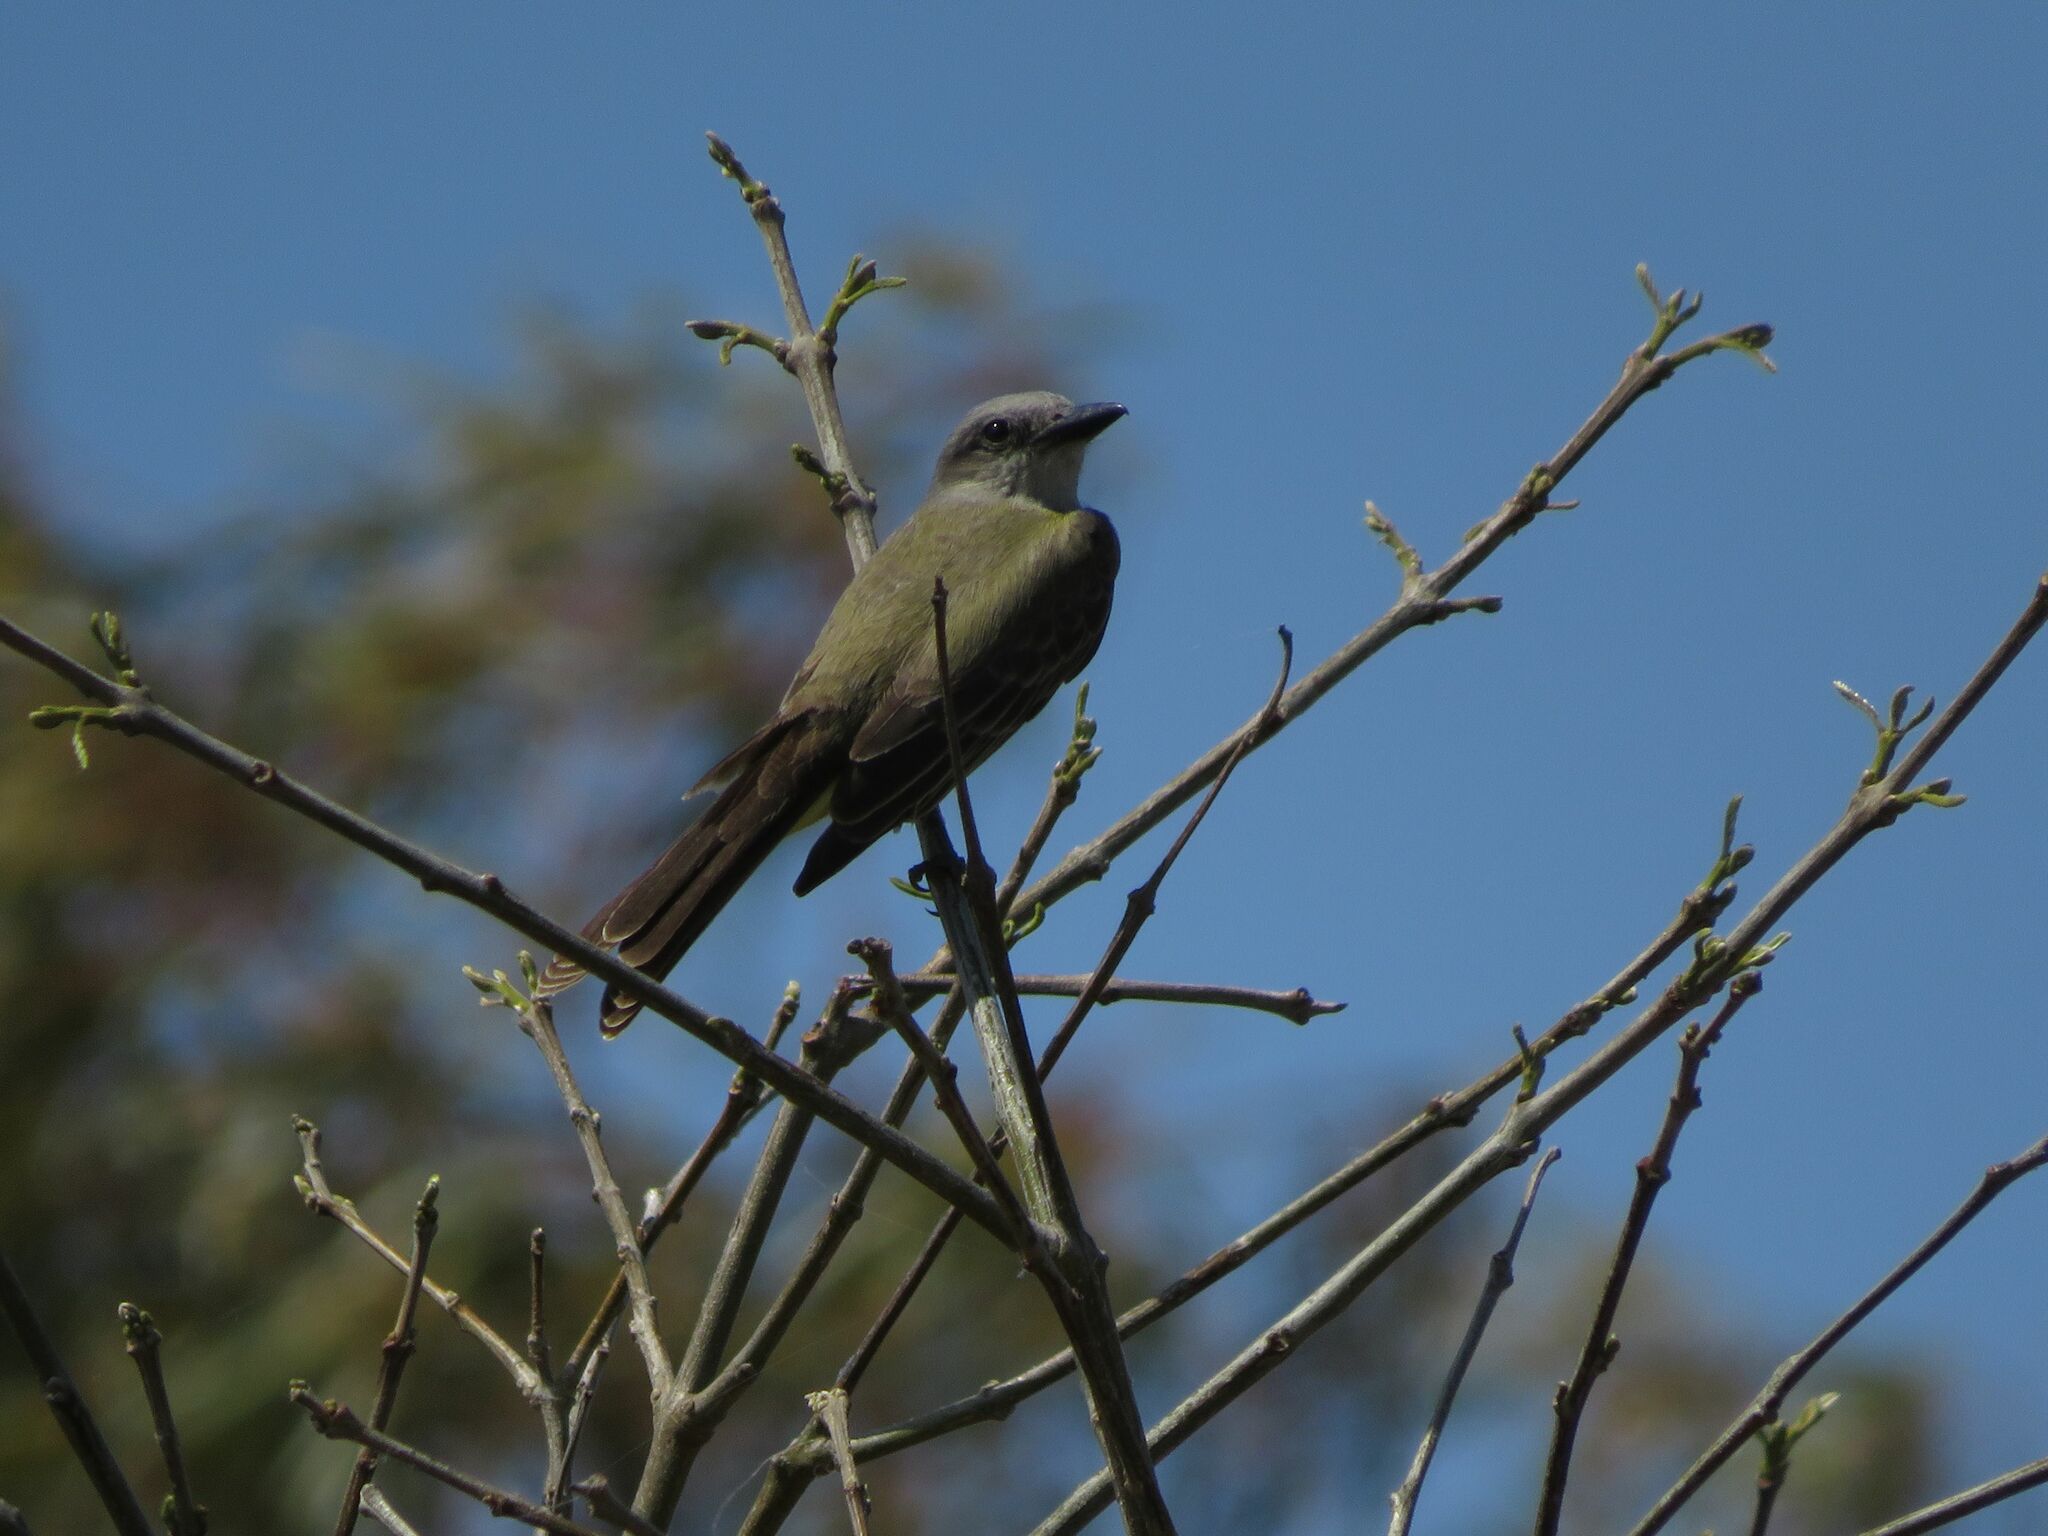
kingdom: Animalia
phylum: Chordata
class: Aves
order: Passeriformes
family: Tyrannidae
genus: Tyrannus
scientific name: Tyrannus melancholicus
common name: Tropical kingbird
